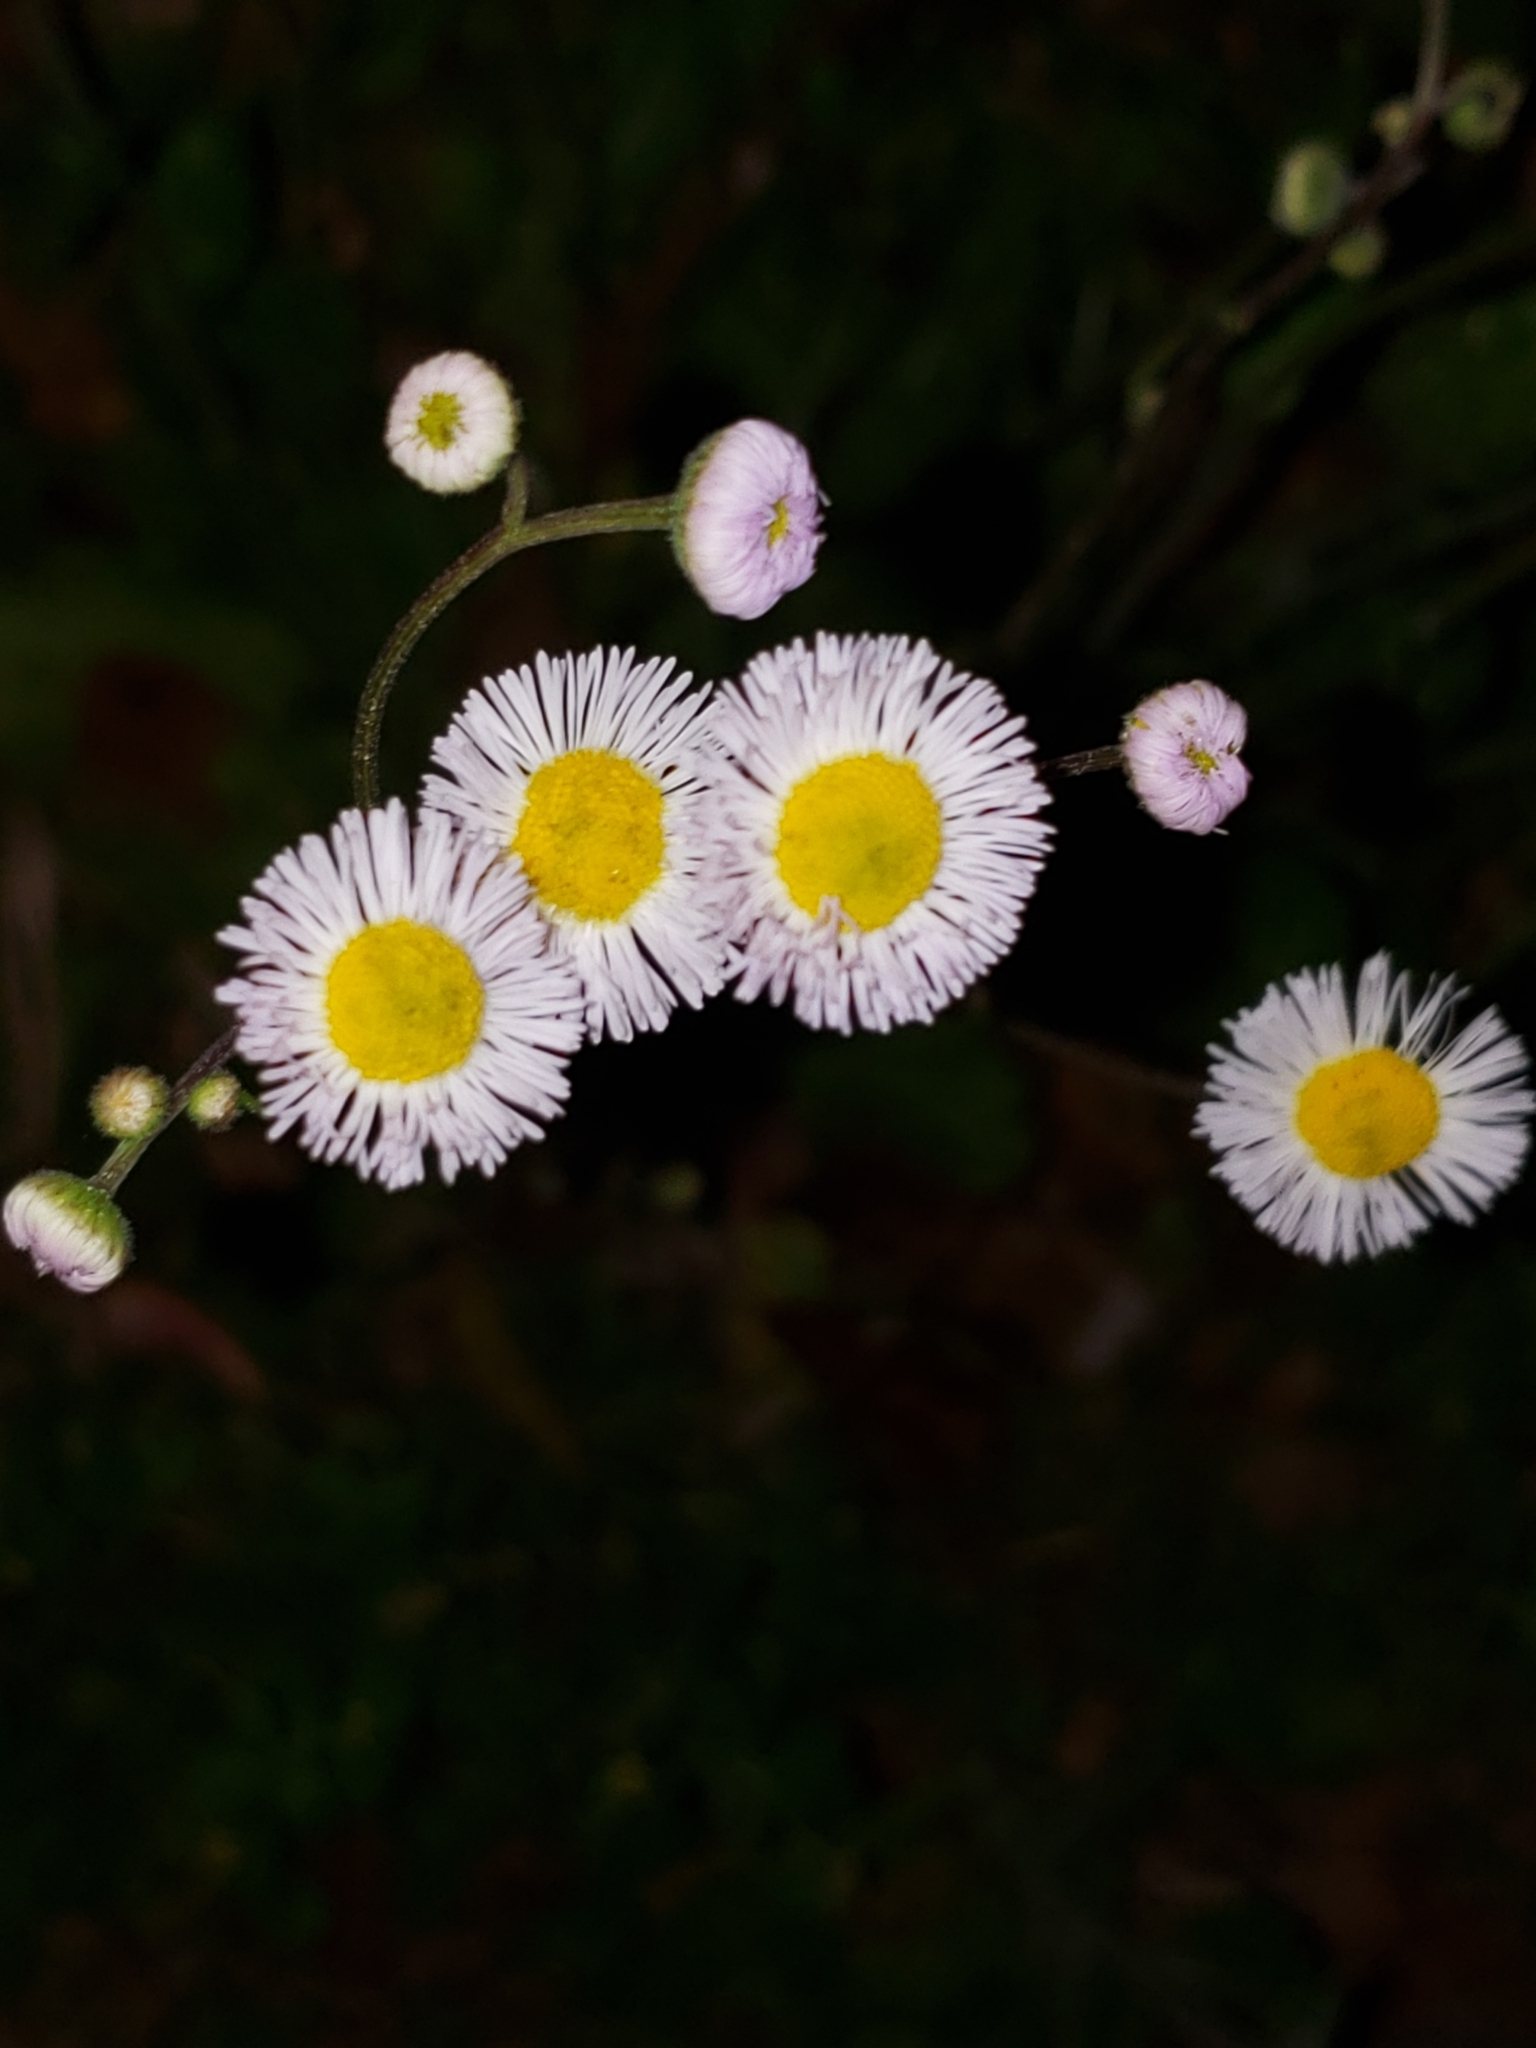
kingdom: Plantae
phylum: Tracheophyta
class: Magnoliopsida
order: Asterales
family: Asteraceae
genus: Erigeron
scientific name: Erigeron quercifolius
